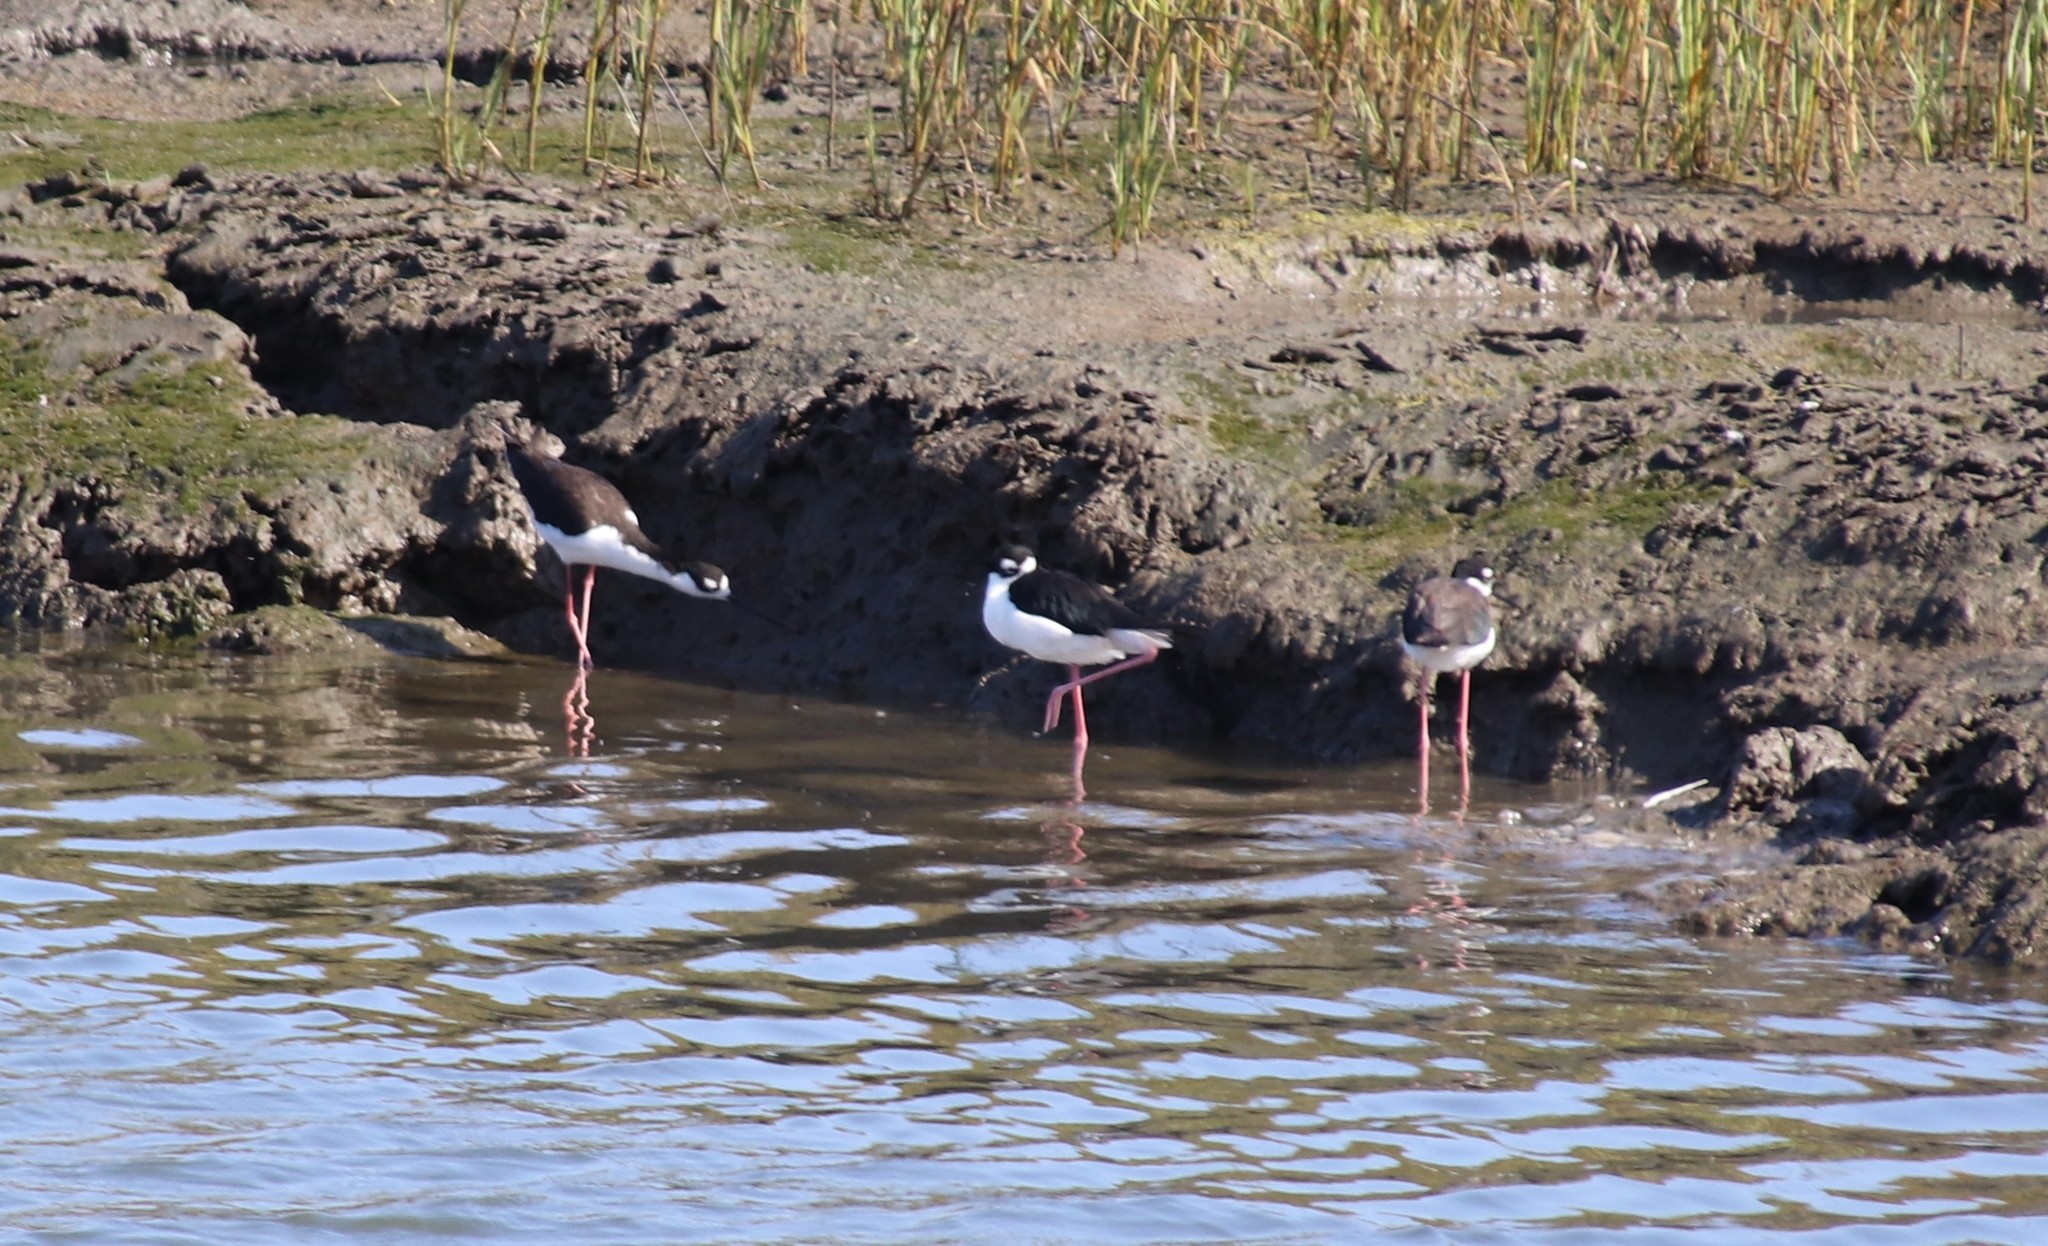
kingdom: Animalia
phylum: Chordata
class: Aves
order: Charadriiformes
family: Recurvirostridae
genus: Himantopus
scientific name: Himantopus mexicanus
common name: Black-necked stilt
